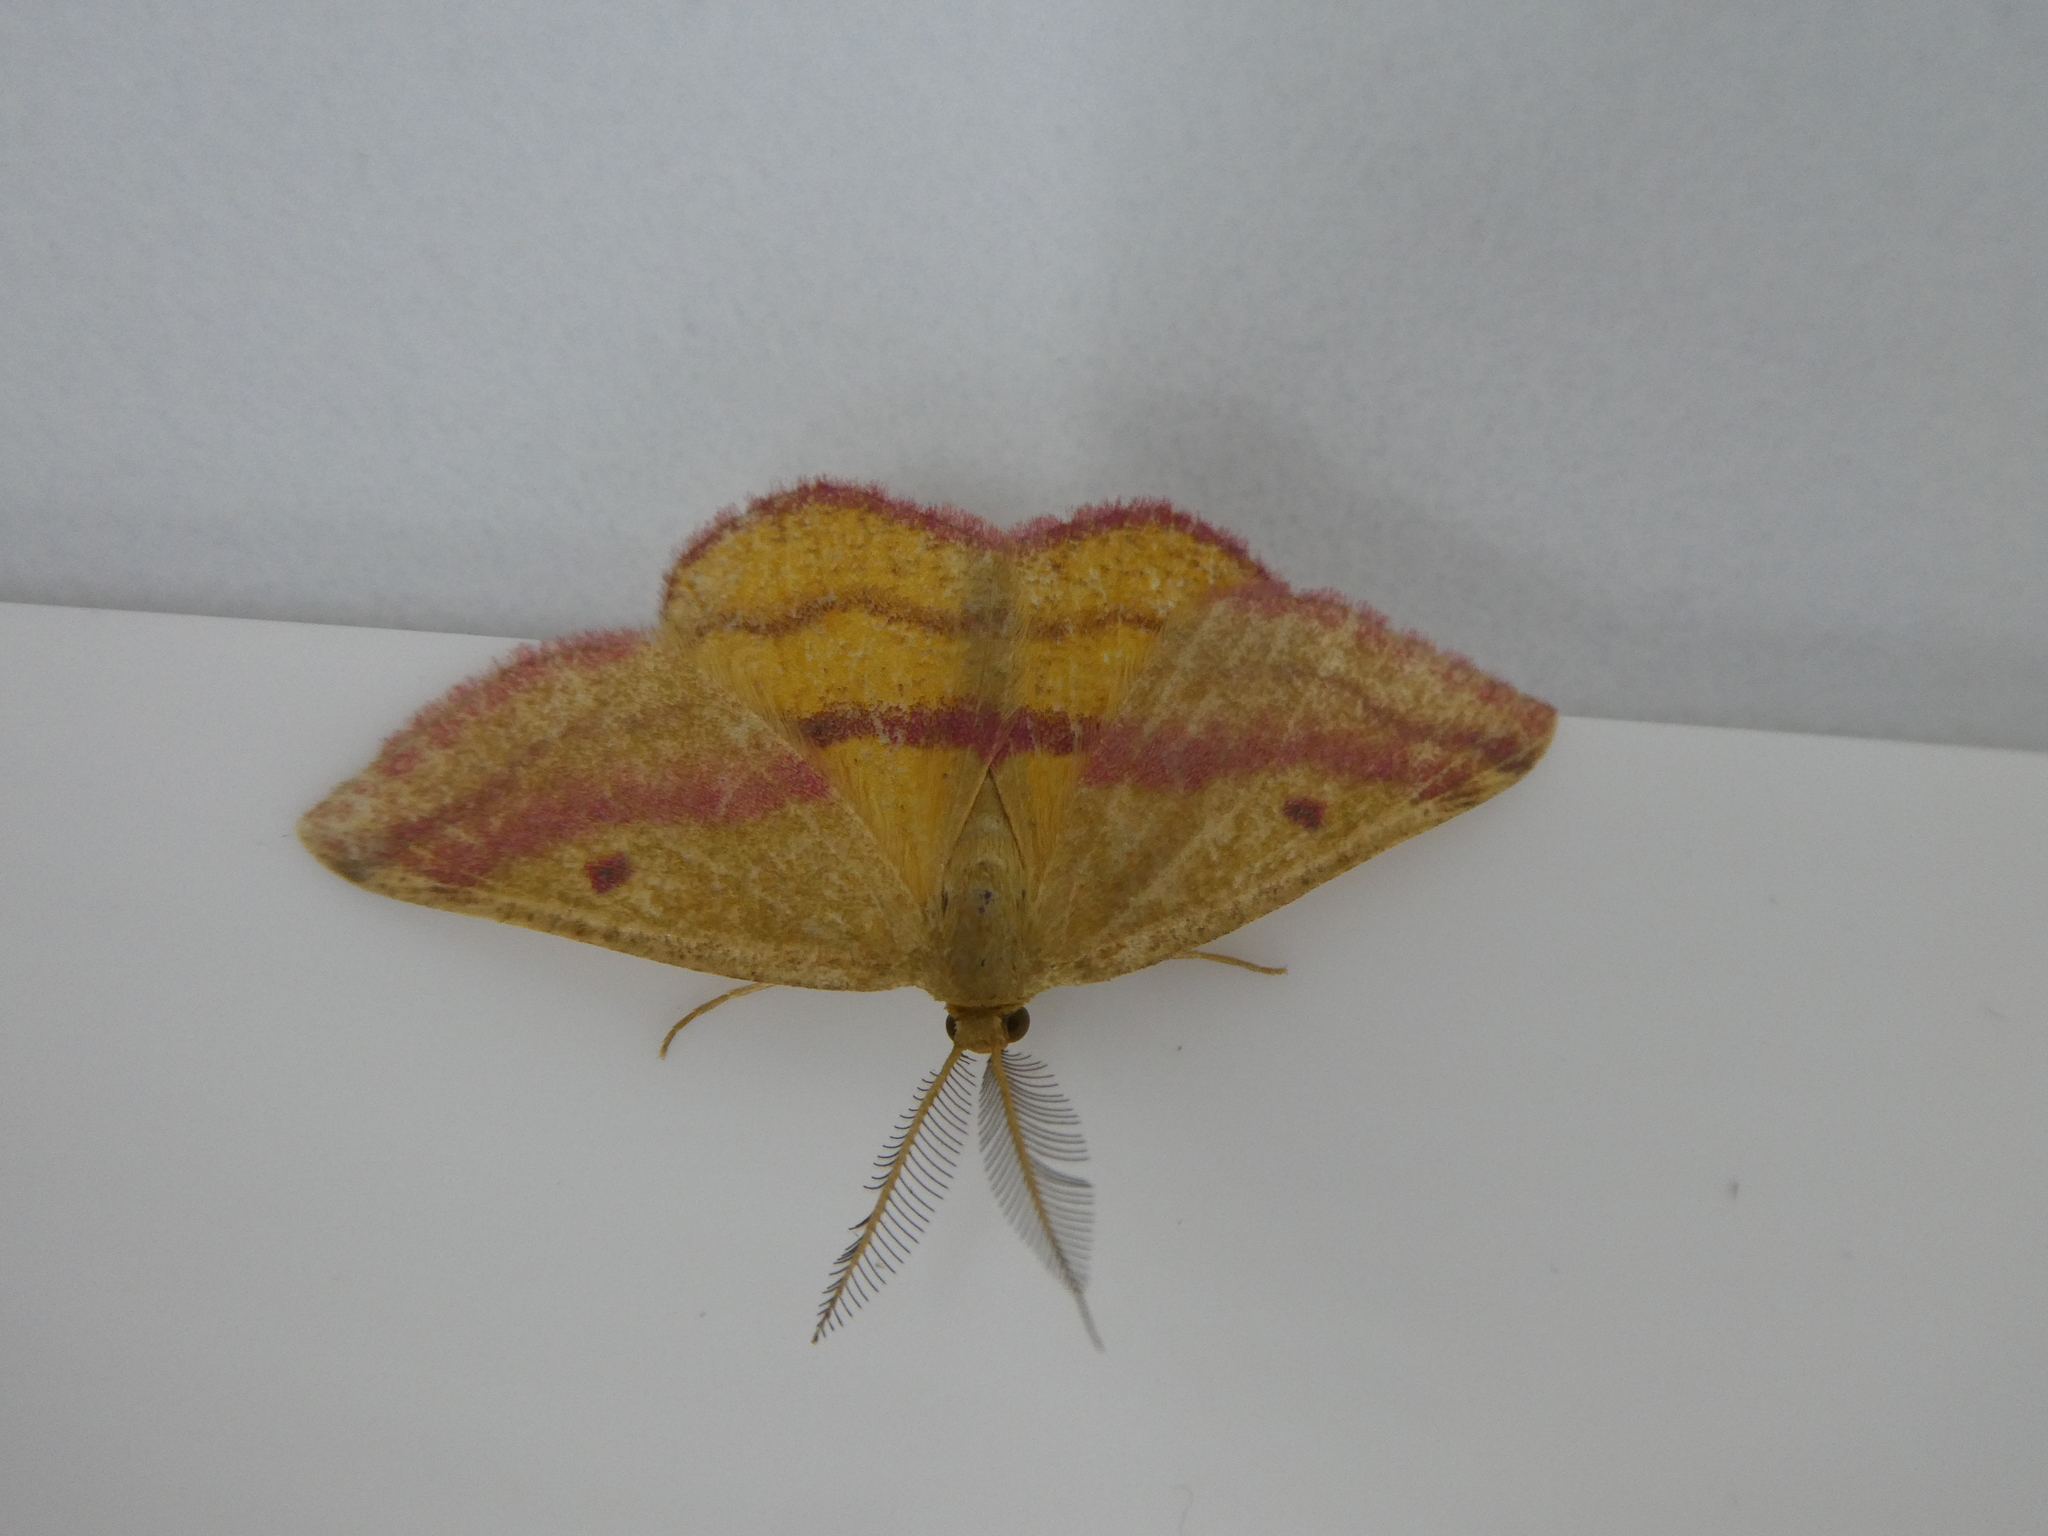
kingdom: Animalia
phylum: Arthropoda
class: Insecta
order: Lepidoptera
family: Geometridae
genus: Haematopis
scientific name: Haematopis grataria
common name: Chickweed geometer
